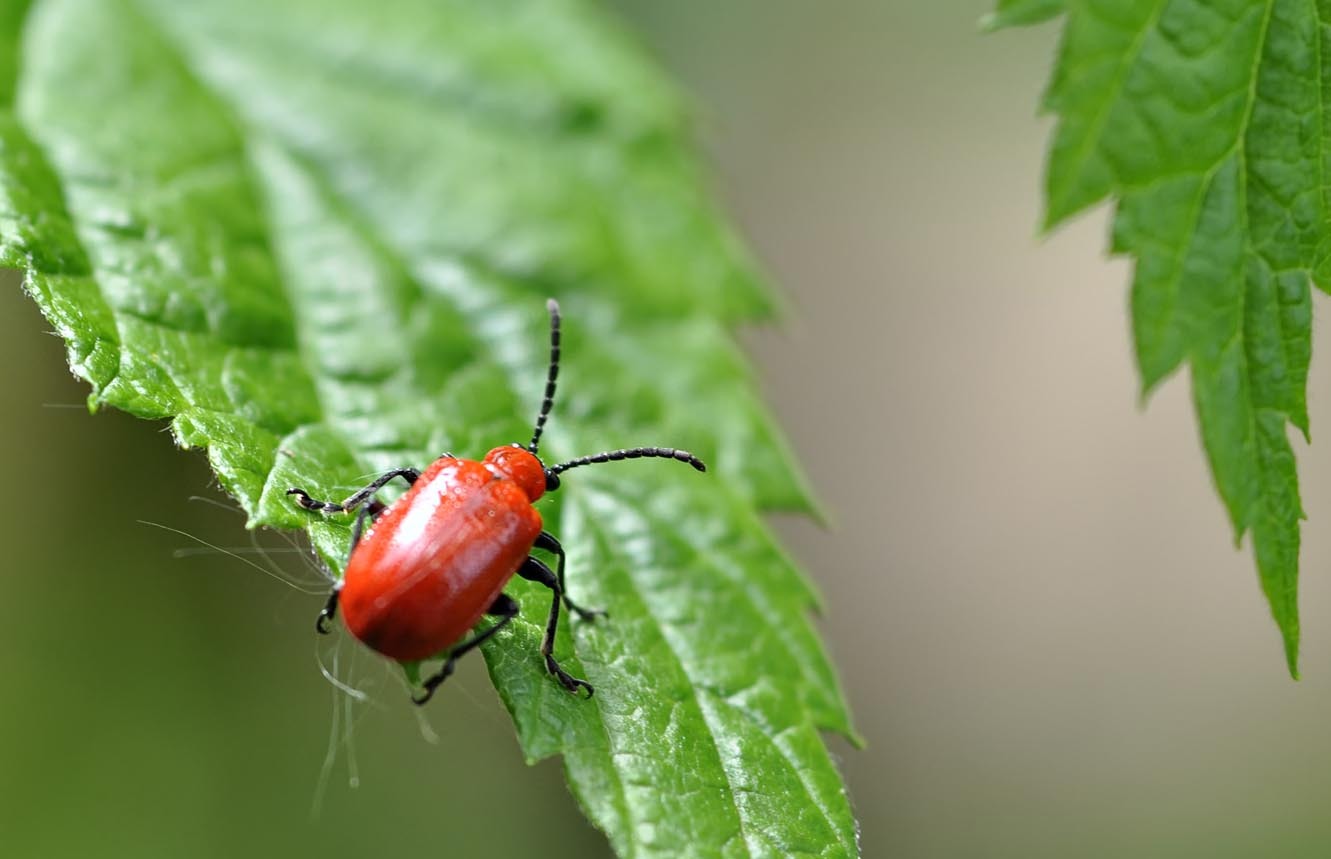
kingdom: Animalia
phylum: Arthropoda
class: Insecta
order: Coleoptera
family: Chrysomelidae
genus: Lilioceris
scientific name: Lilioceris lilii
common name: Lily beetle
